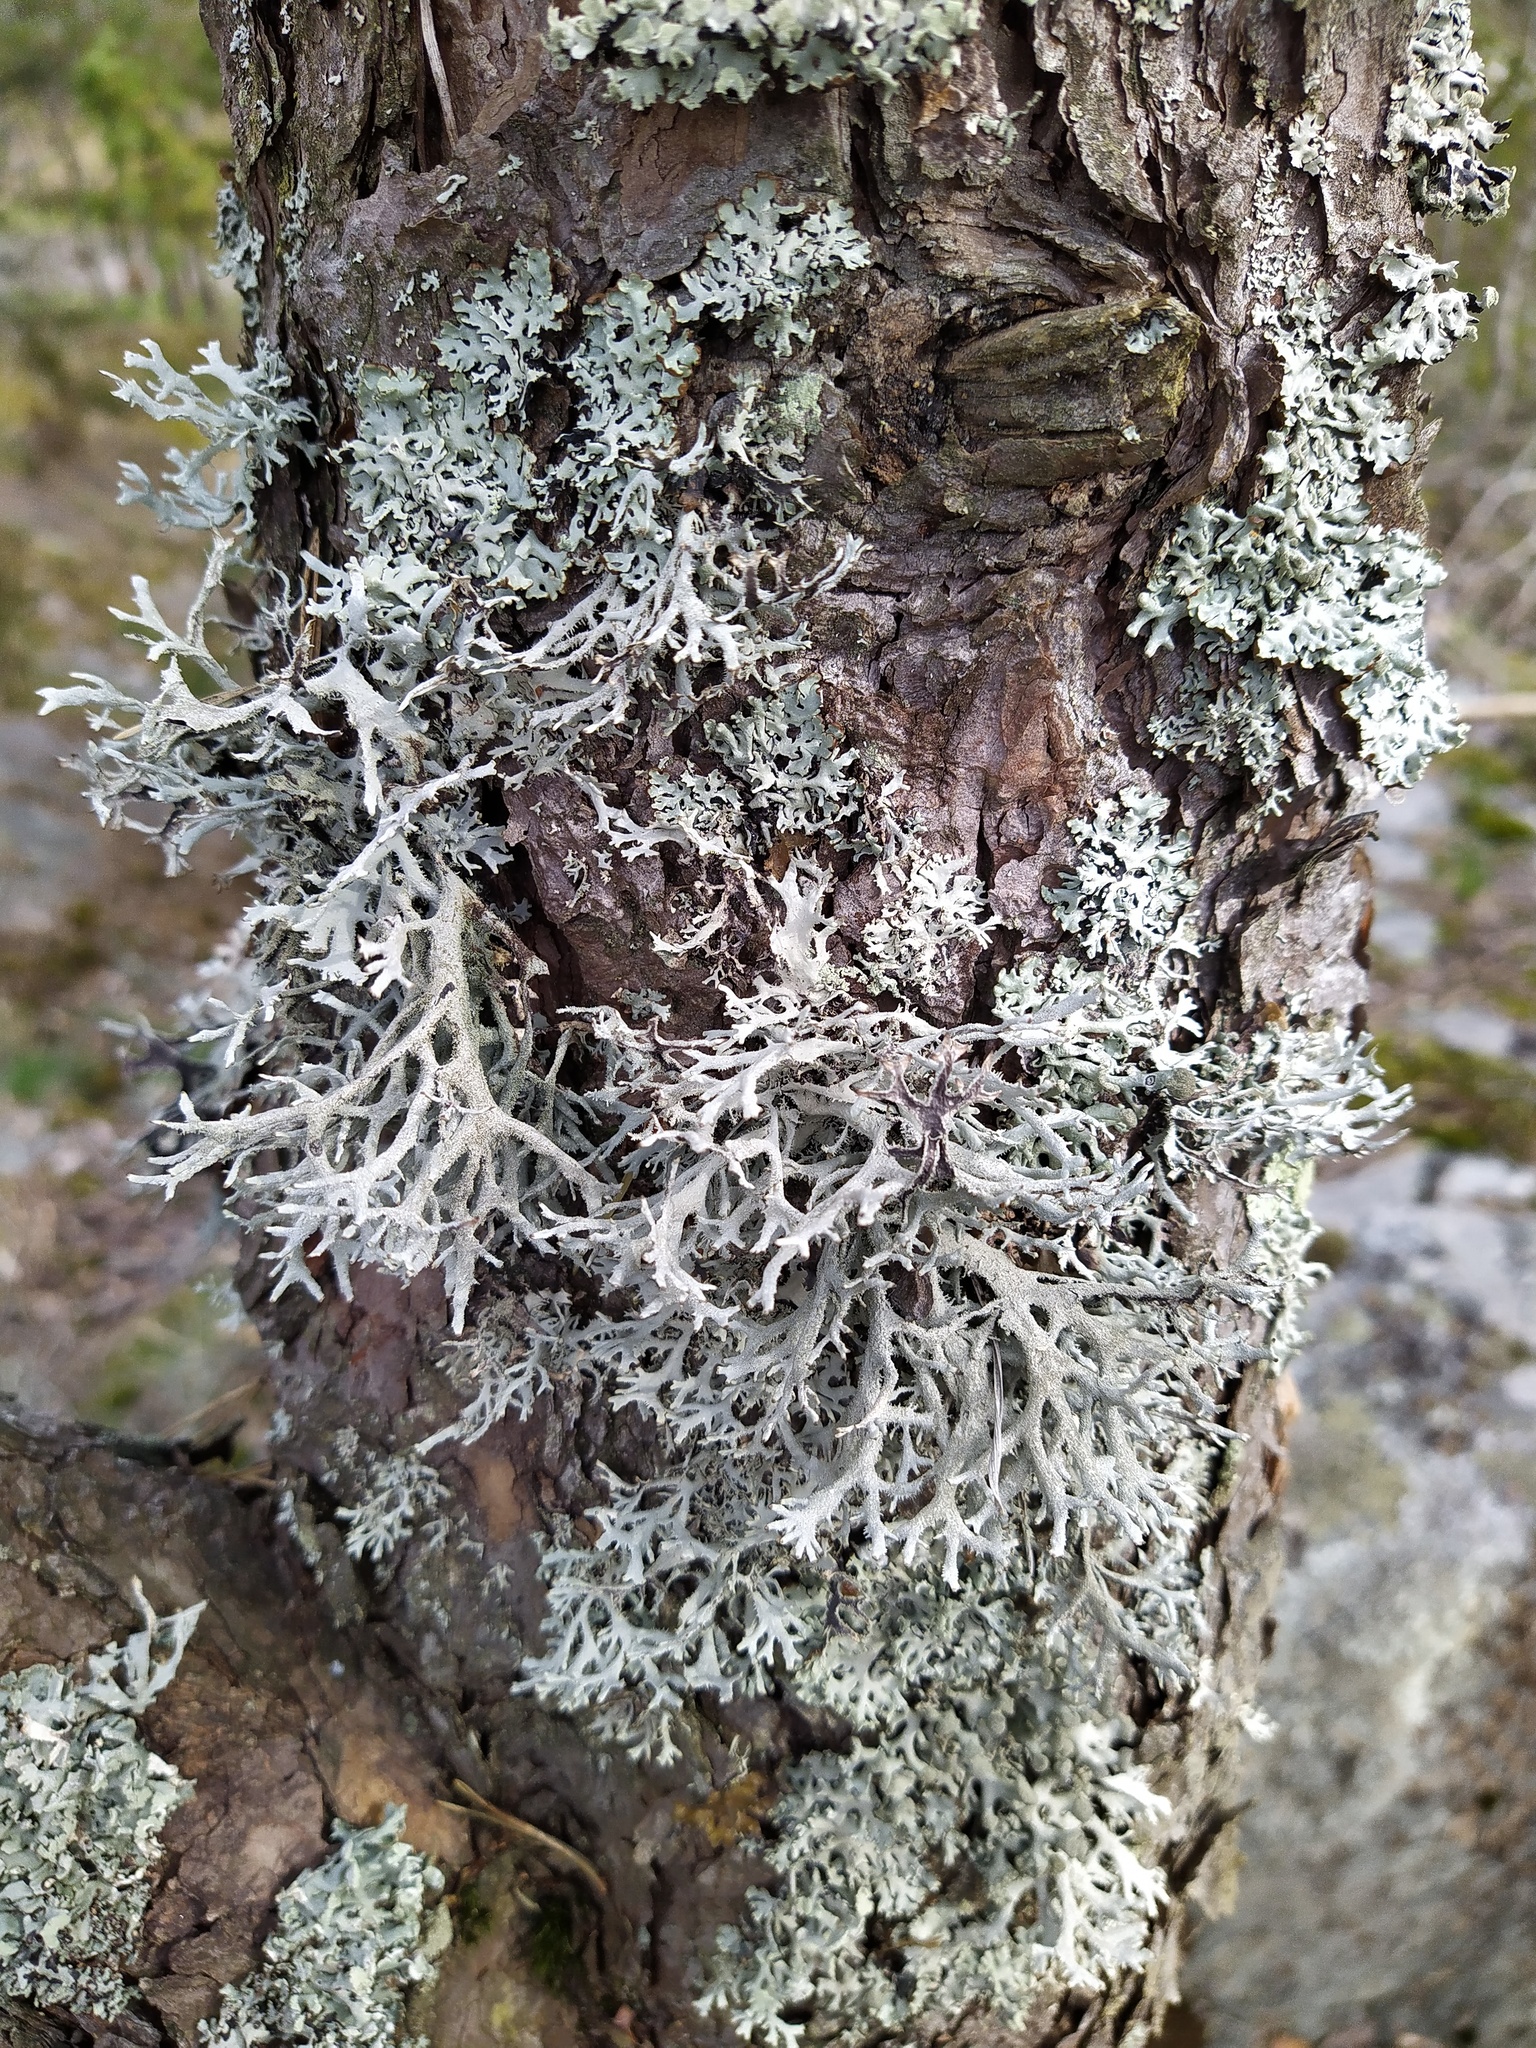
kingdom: Fungi
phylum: Ascomycota
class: Lecanoromycetes
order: Lecanorales
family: Parmeliaceae
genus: Pseudevernia
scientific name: Pseudevernia furfuracea
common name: Tree moss
